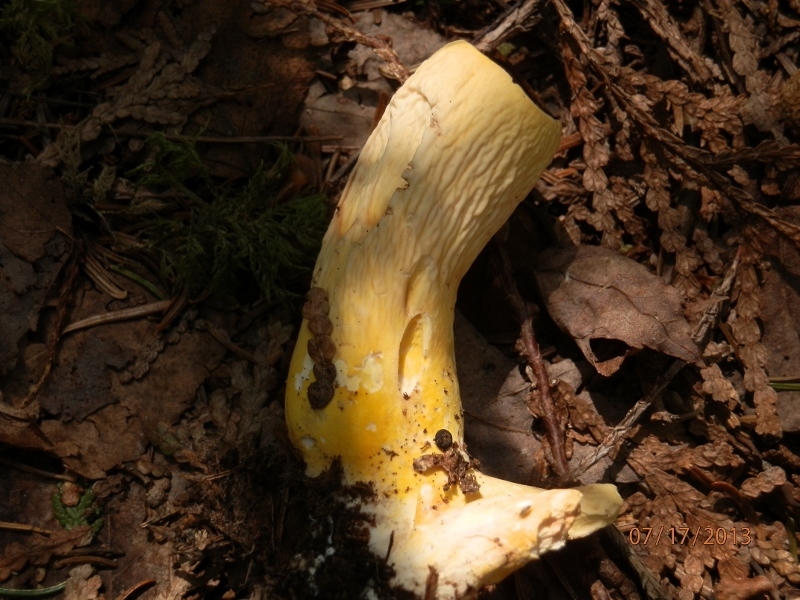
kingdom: Fungi
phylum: Basidiomycota
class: Agaricomycetes
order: Gomphales
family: Gomphaceae
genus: Turbinellus
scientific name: Turbinellus floccosus
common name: Scaly chanterelle
